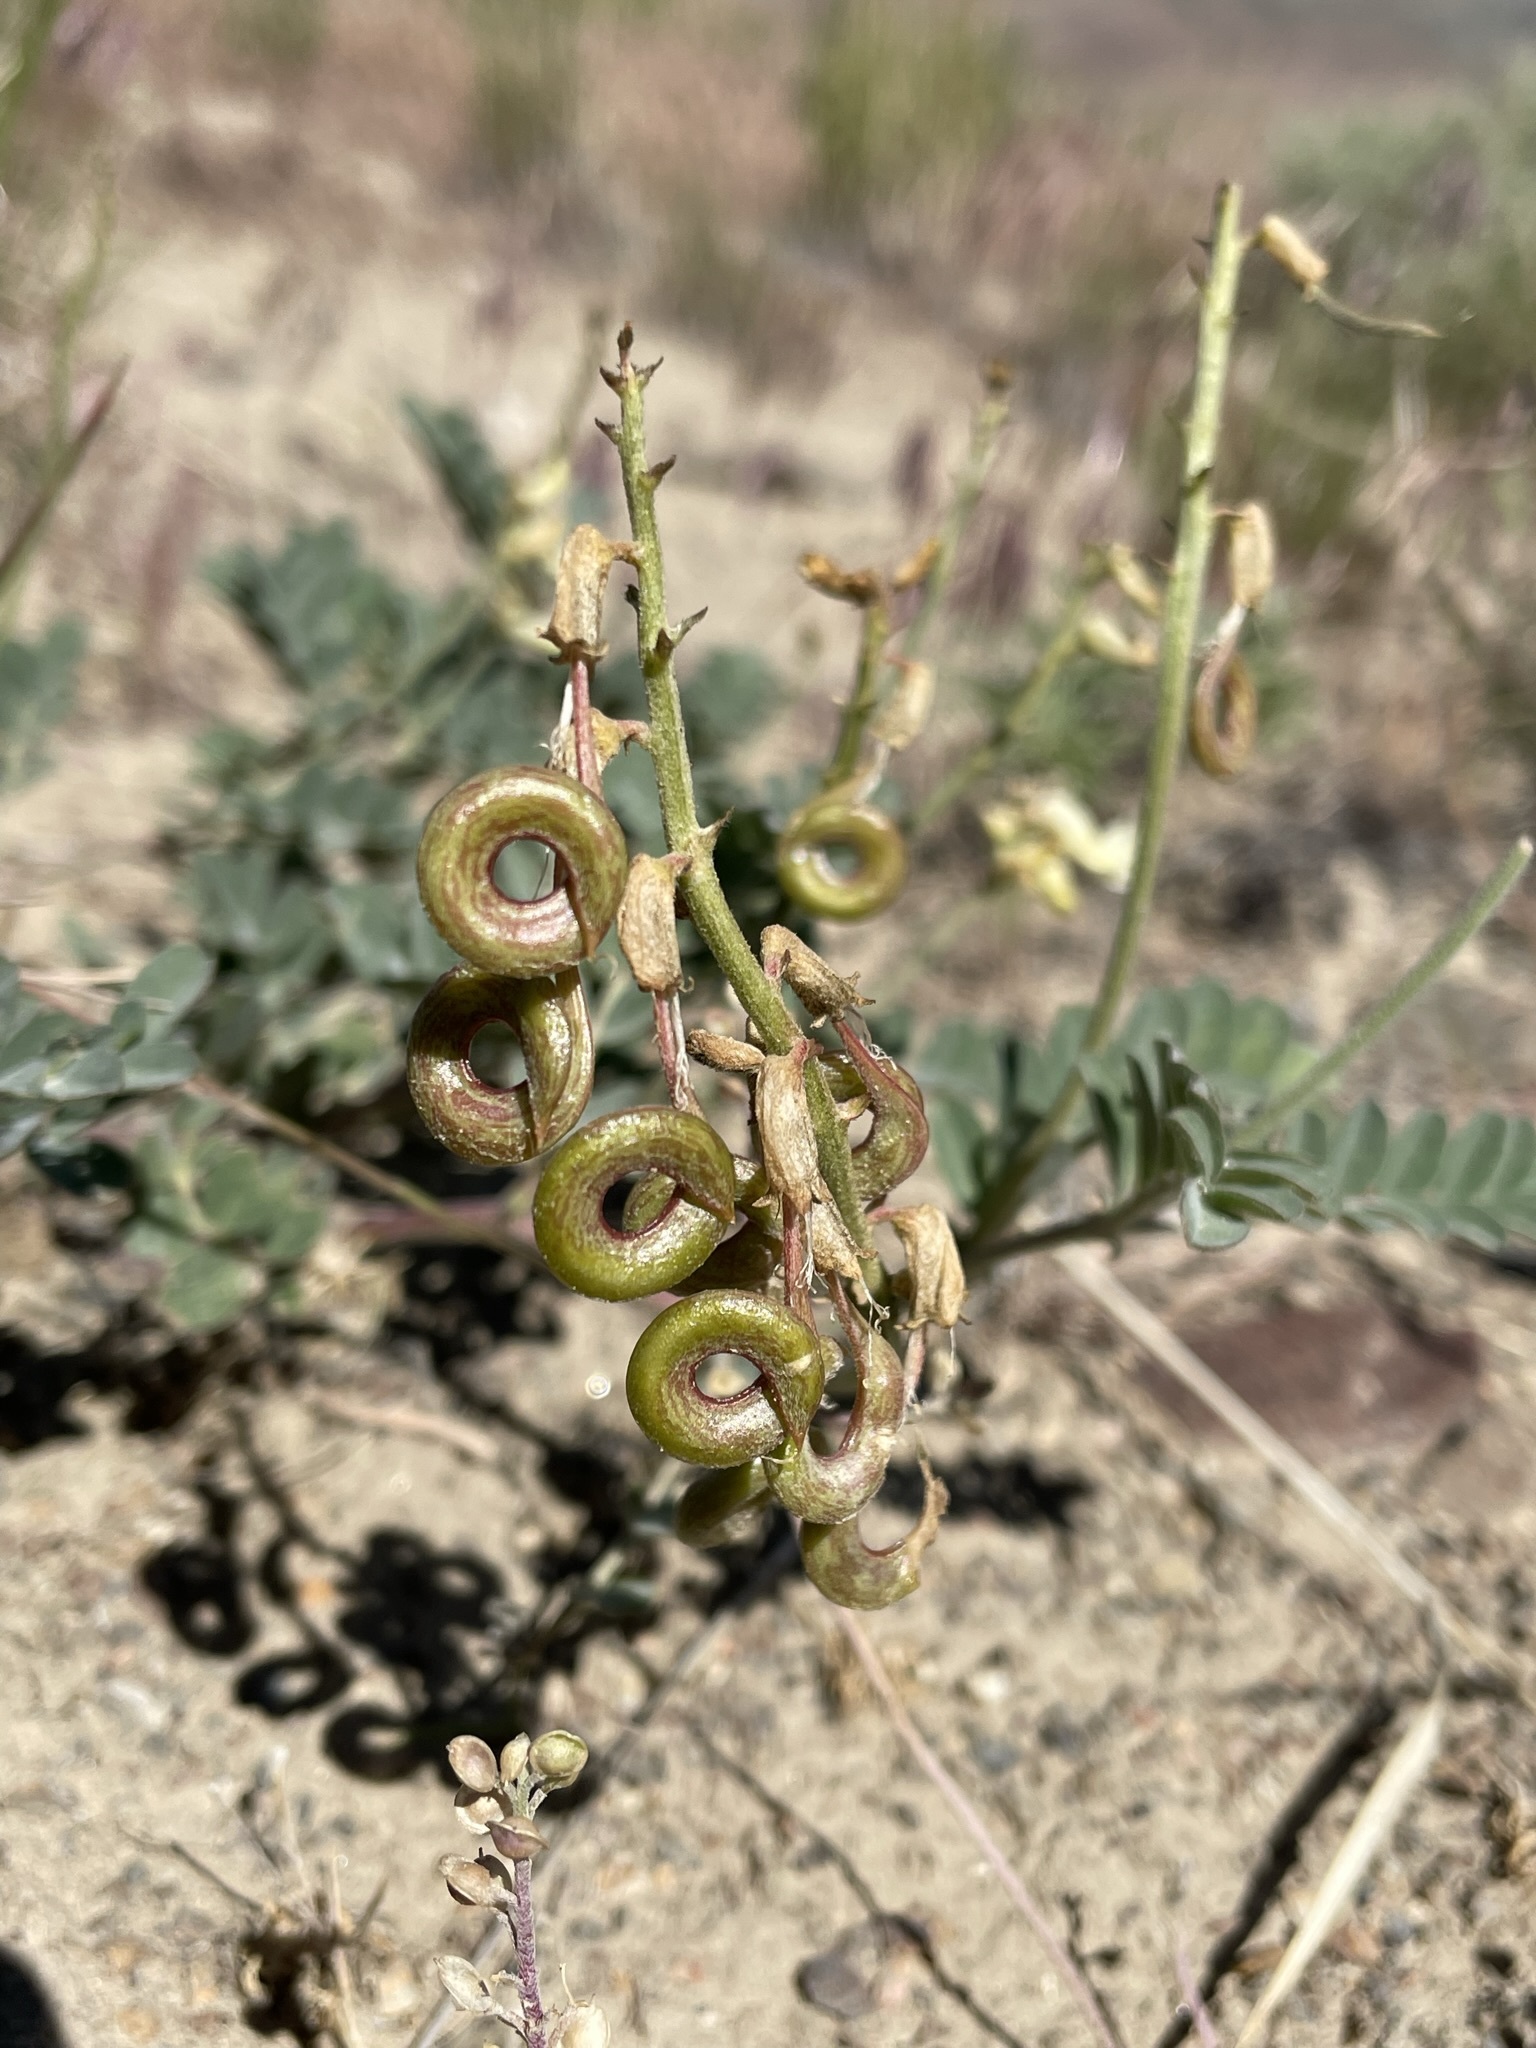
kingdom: Plantae
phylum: Tracheophyta
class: Magnoliopsida
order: Fabales
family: Fabaceae
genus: Astragalus
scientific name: Astragalus curvicarpus
